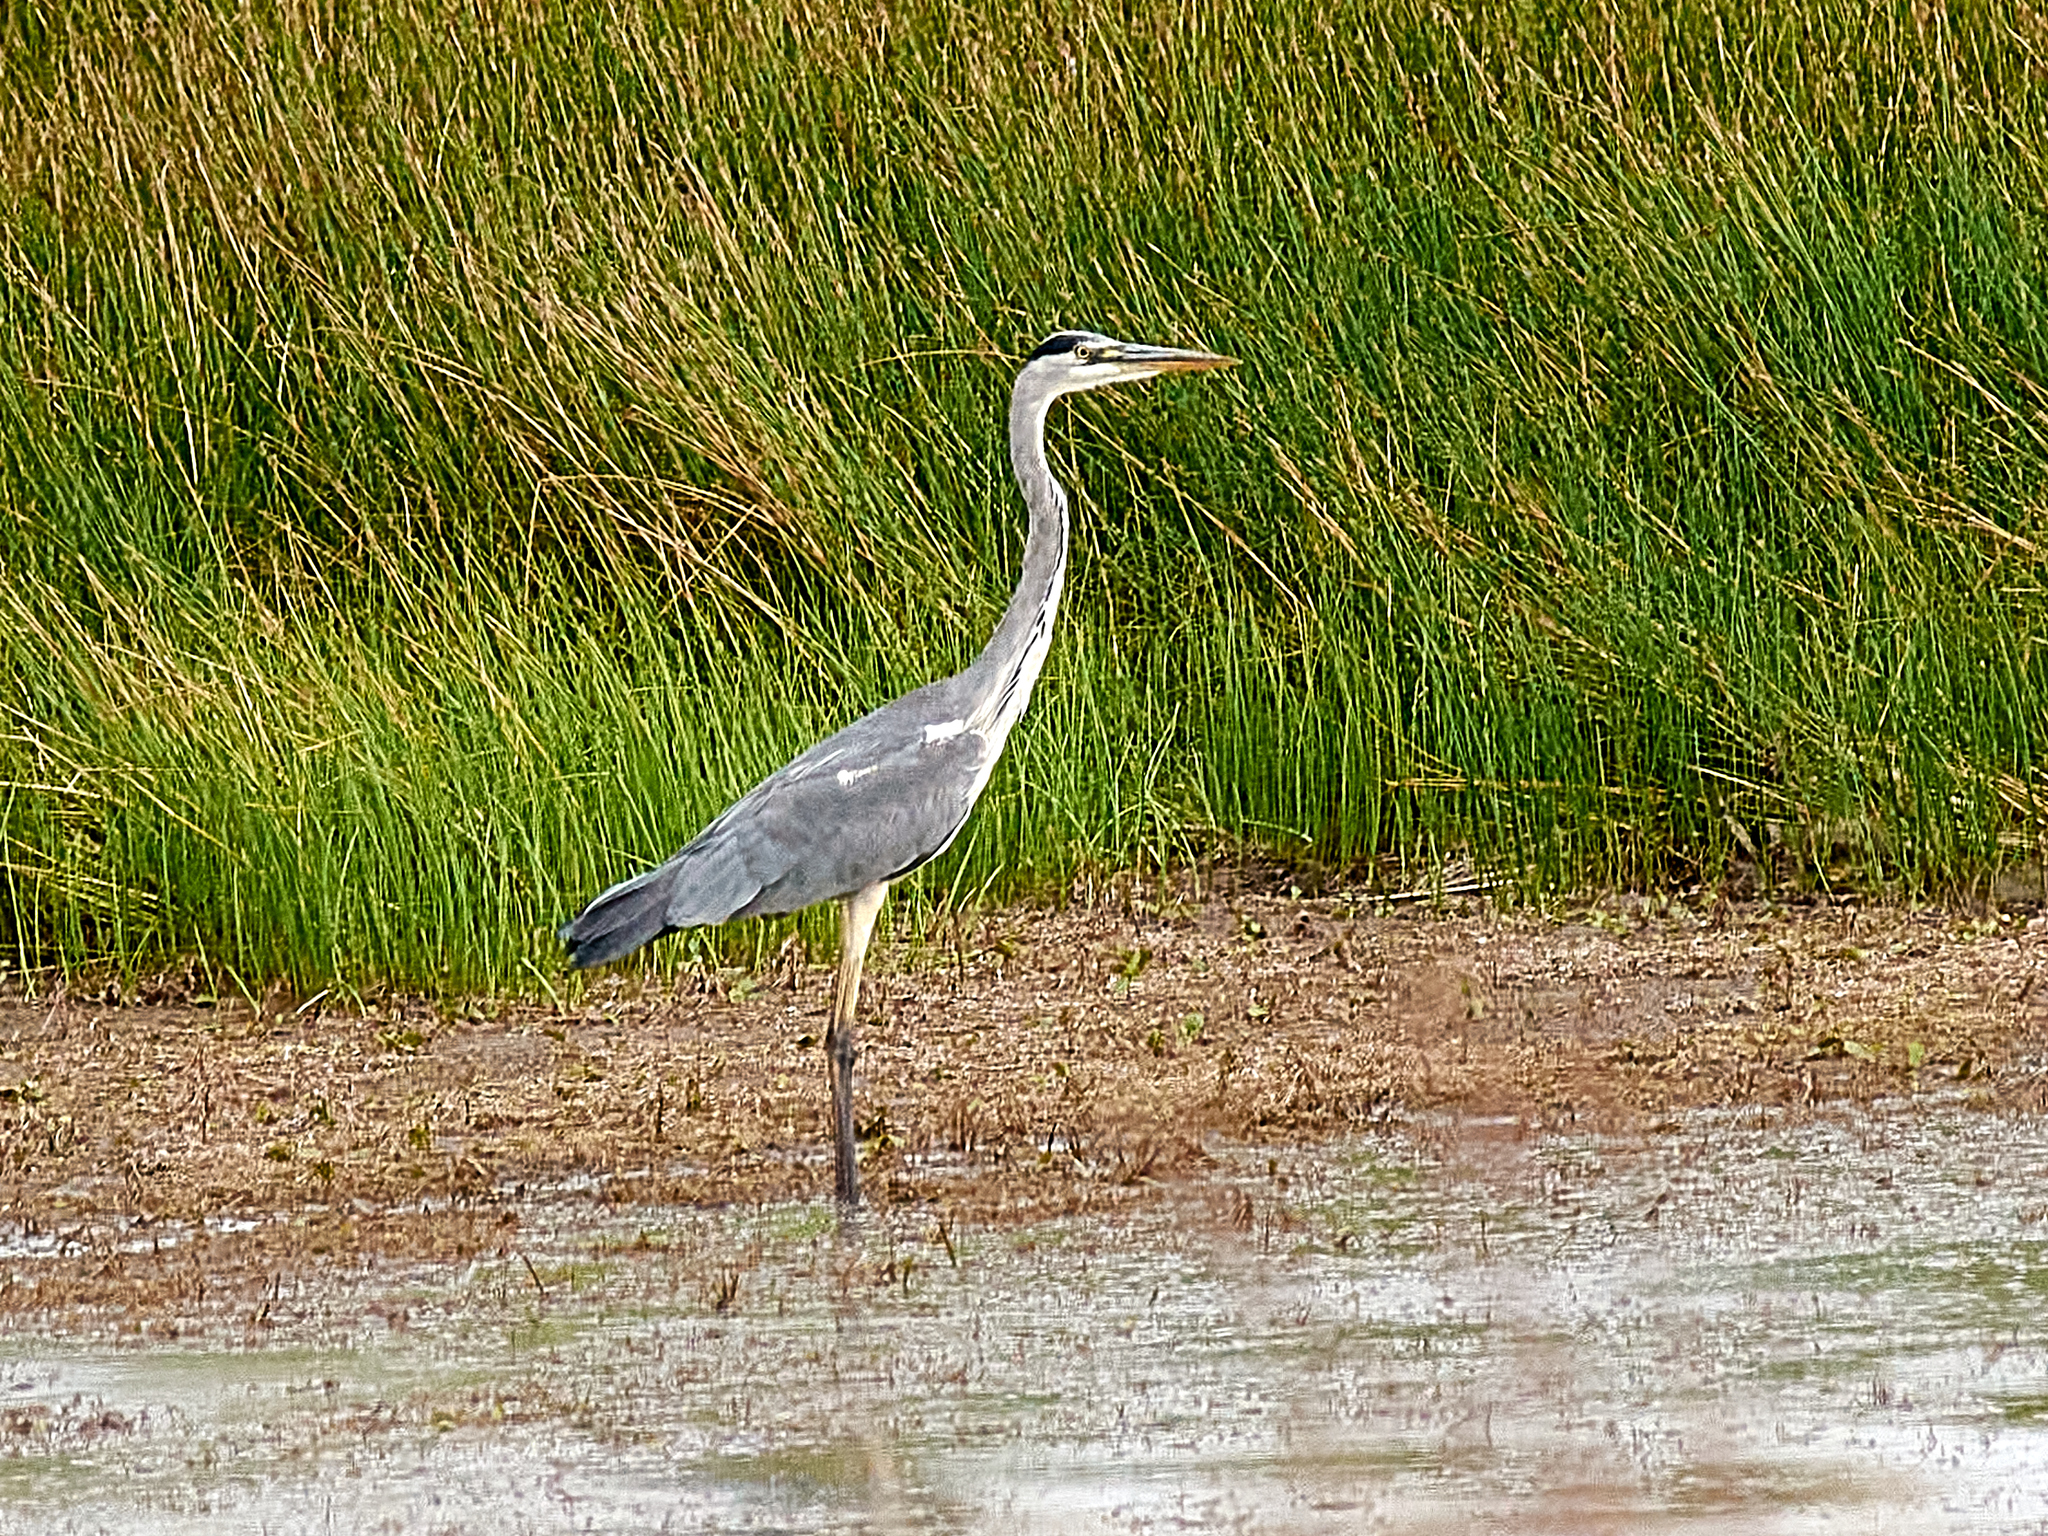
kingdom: Animalia
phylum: Chordata
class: Aves
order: Pelecaniformes
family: Ardeidae
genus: Ardea
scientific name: Ardea cinerea
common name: Grey heron
